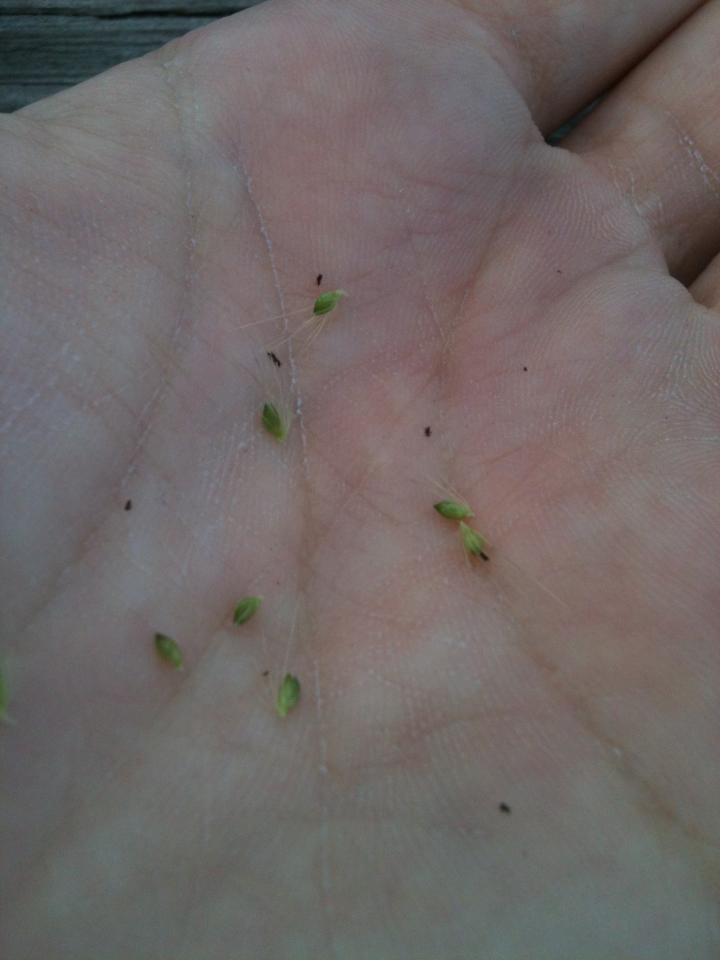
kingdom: Plantae
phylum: Tracheophyta
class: Liliopsida
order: Poales
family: Poaceae
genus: Setaria
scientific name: Setaria parviflora
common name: Knotroot bristle-grass
